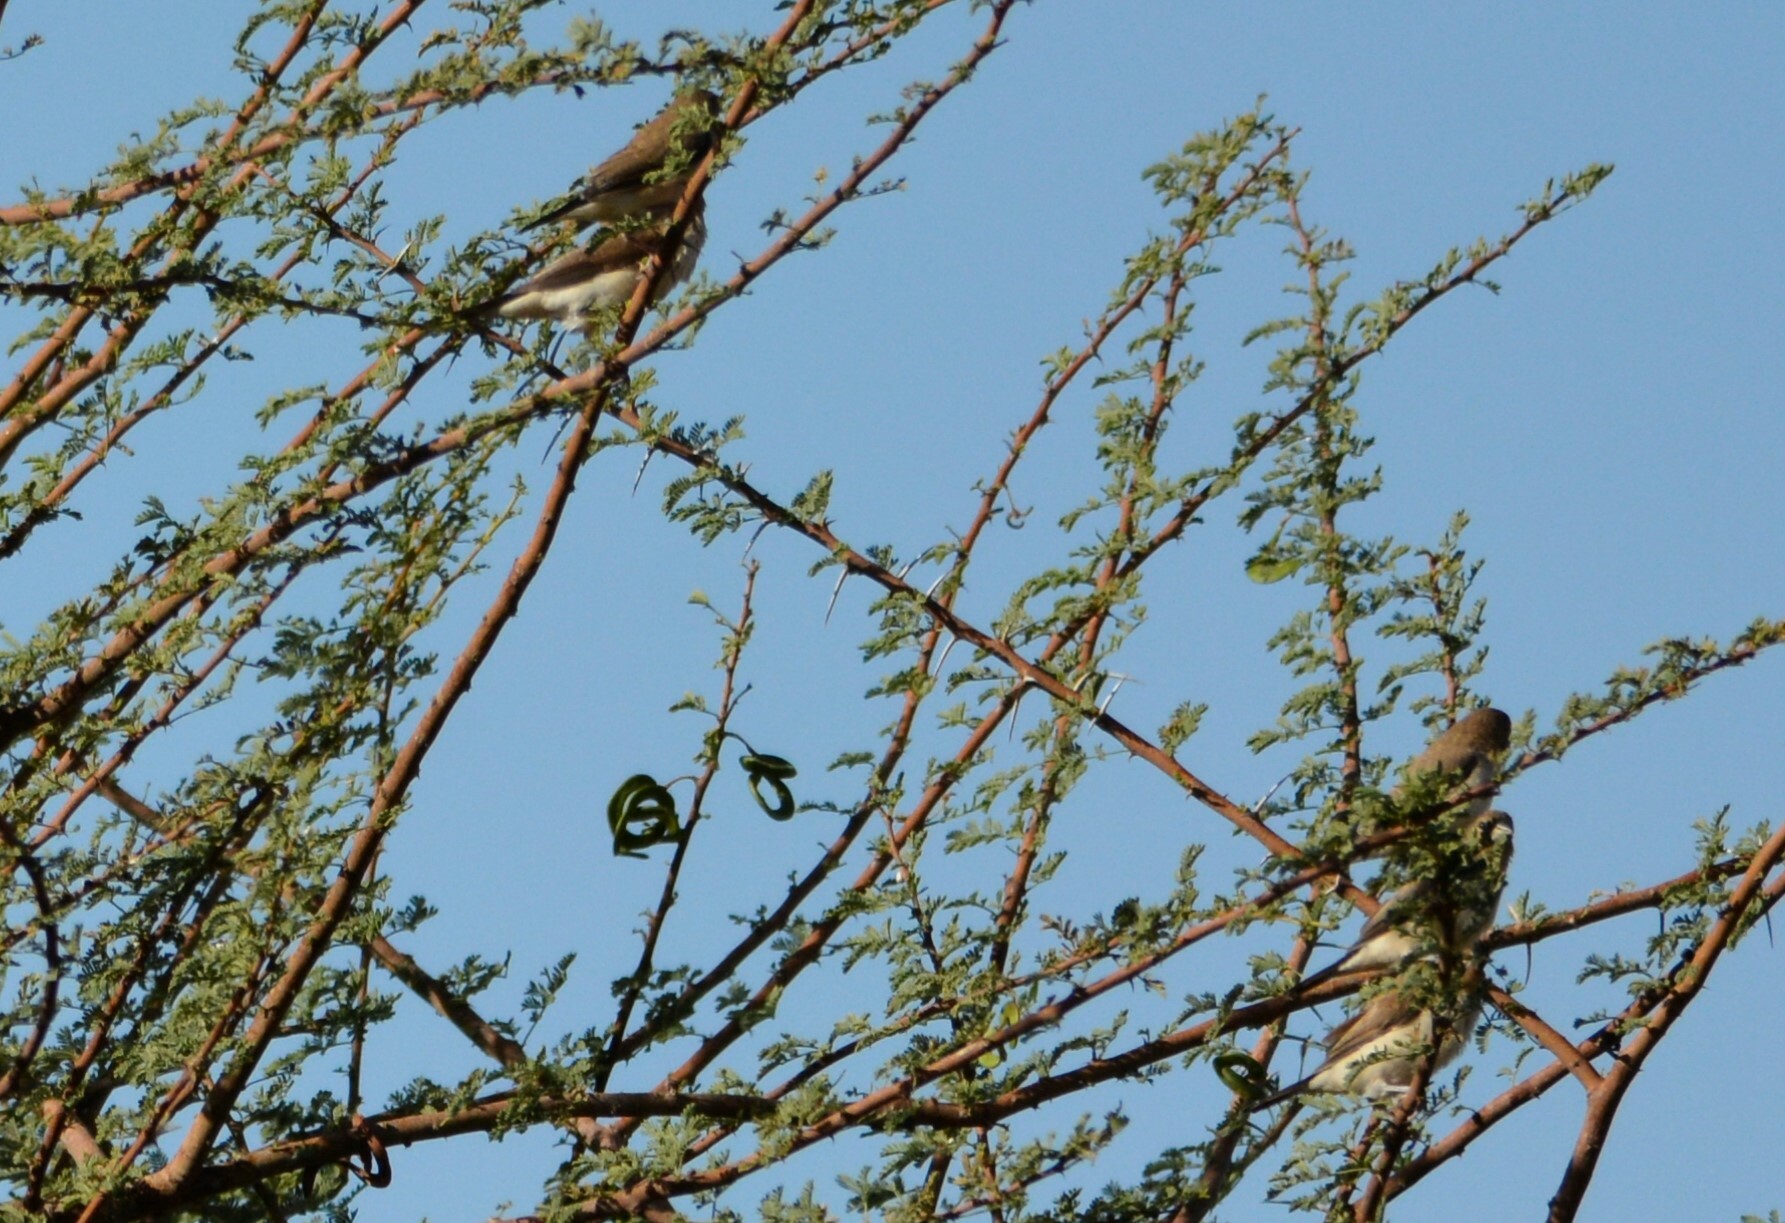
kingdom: Animalia
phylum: Chordata
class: Aves
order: Passeriformes
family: Estrildidae
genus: Euodice
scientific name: Euodice cantans
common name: African silverbill
